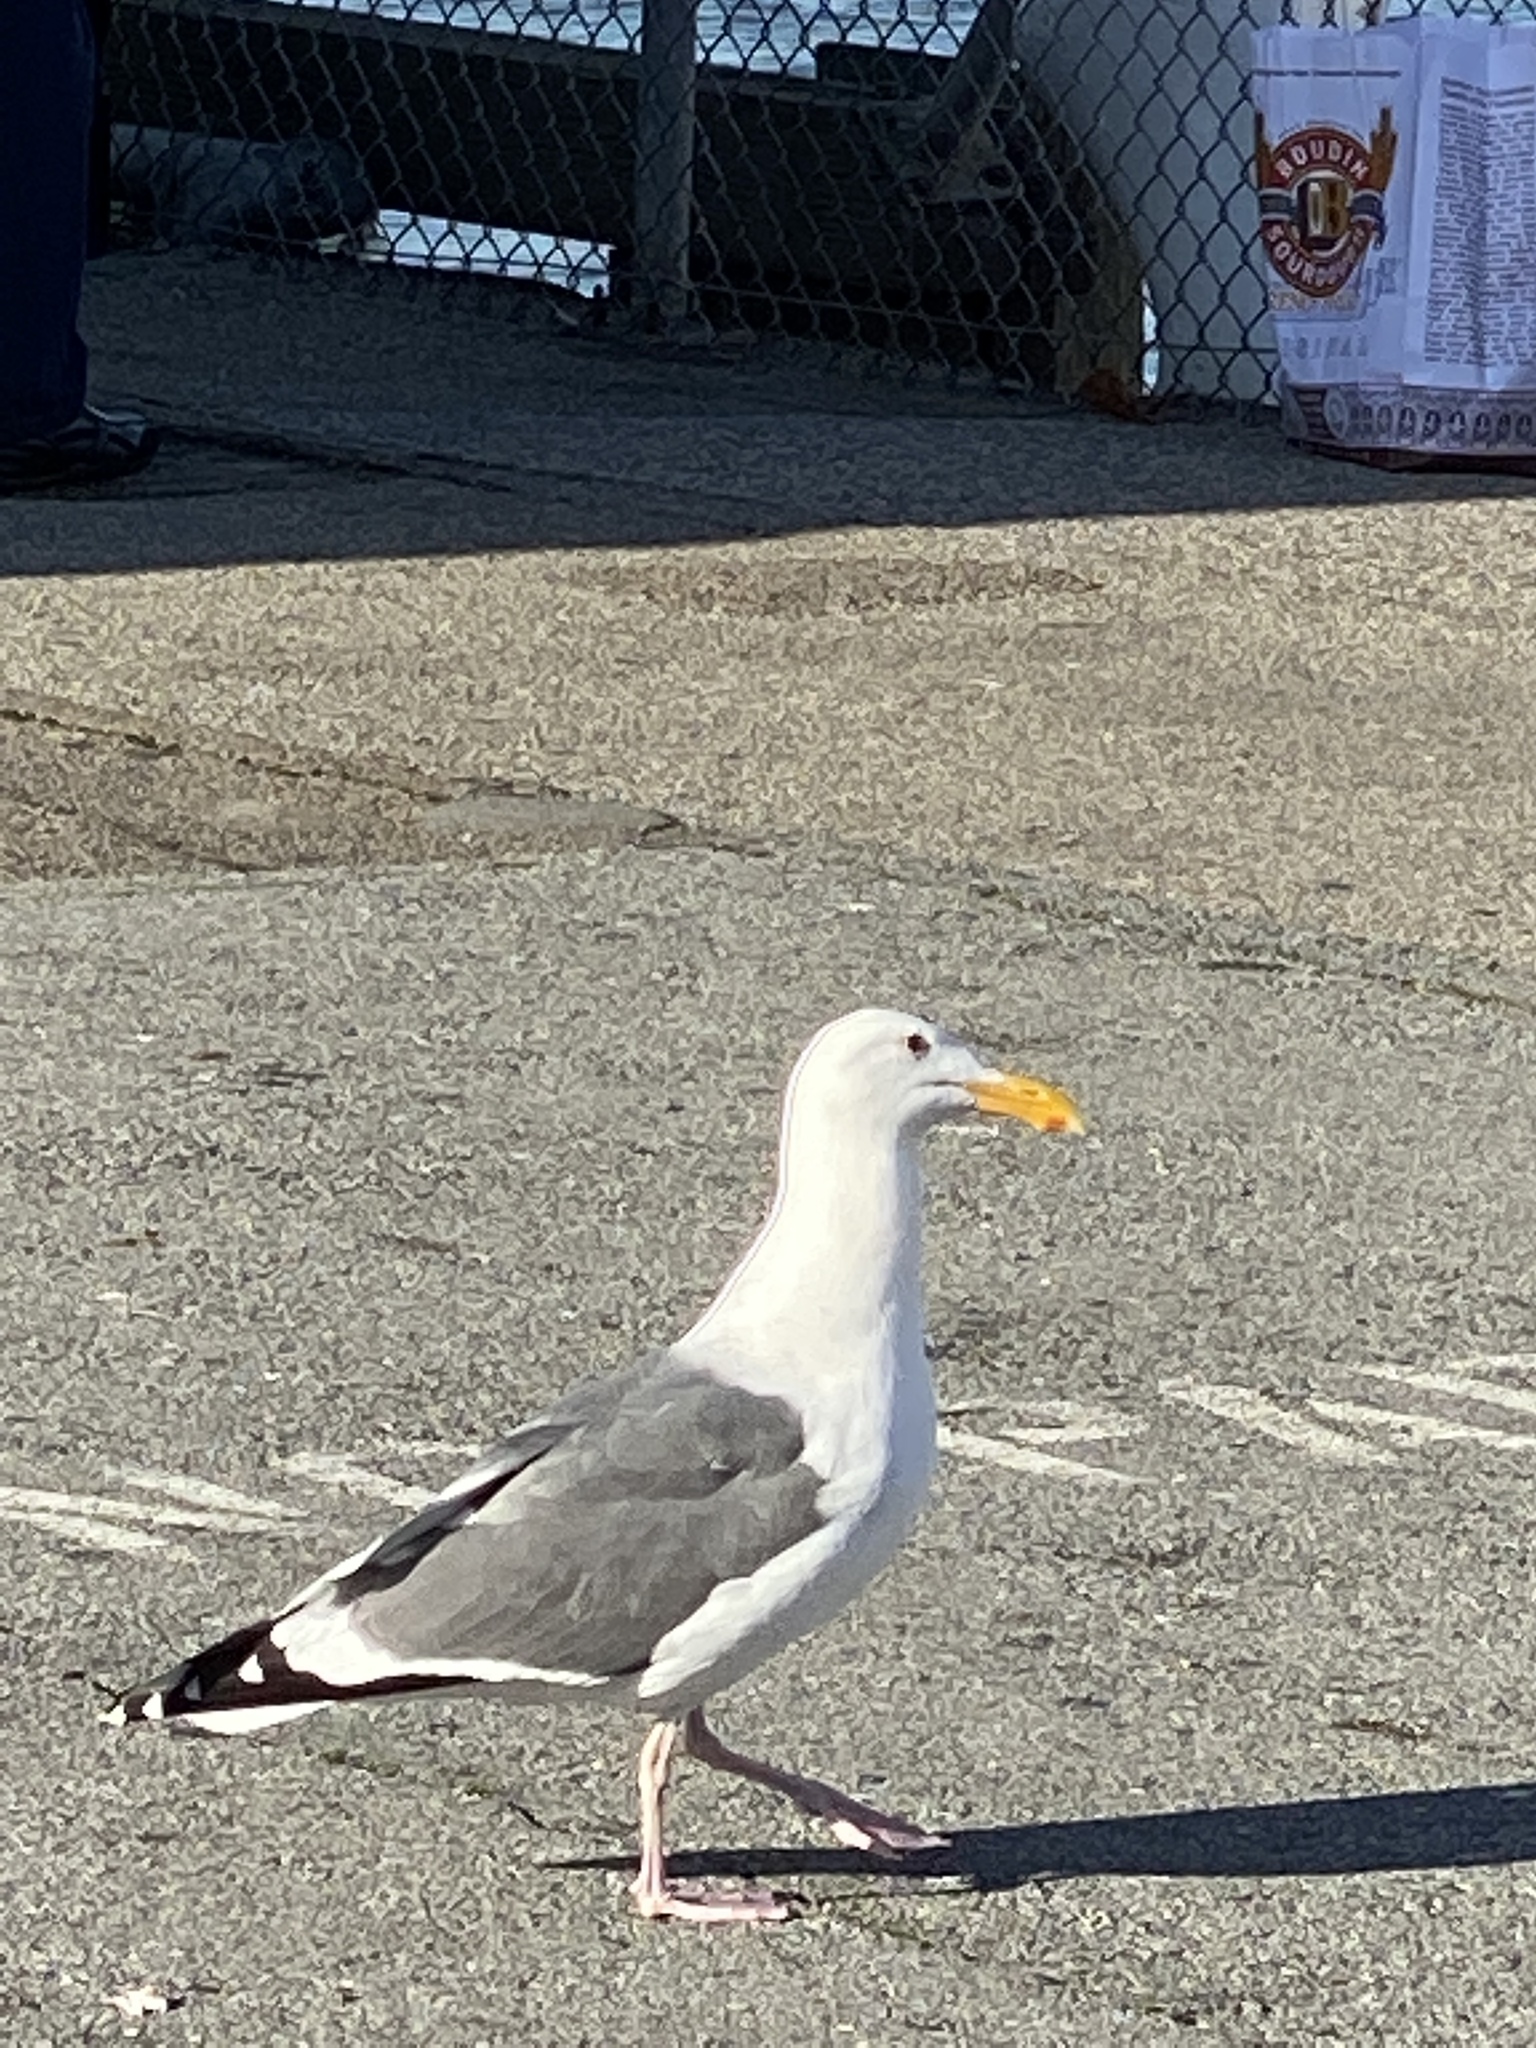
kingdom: Animalia
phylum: Chordata
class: Aves
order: Charadriiformes
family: Laridae
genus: Larus
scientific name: Larus occidentalis
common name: Western gull
